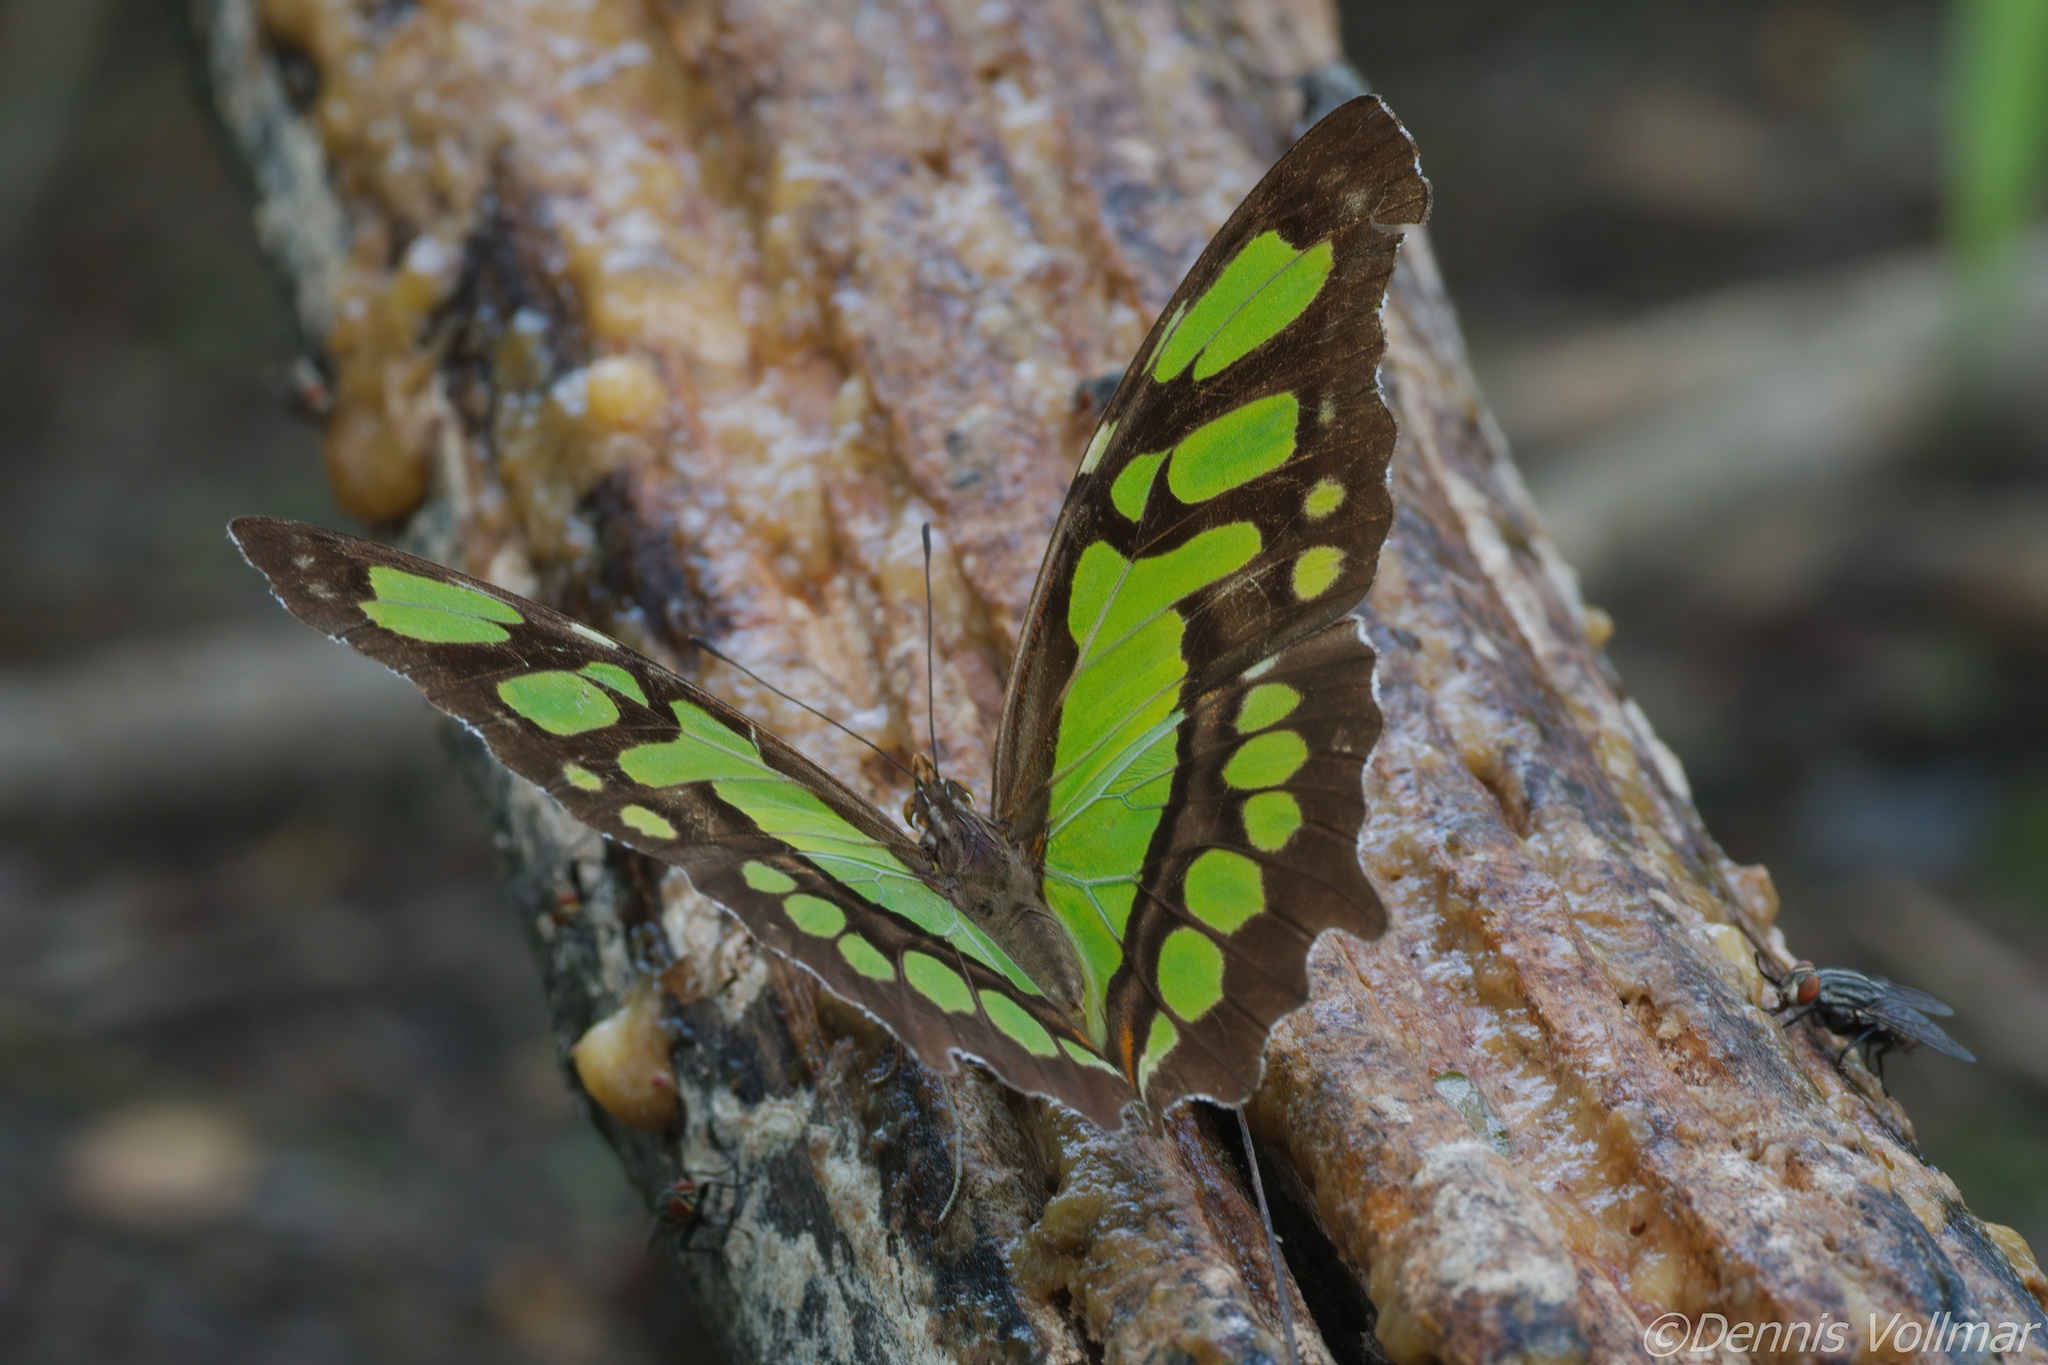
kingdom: Animalia
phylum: Arthropoda
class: Insecta
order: Lepidoptera
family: Nymphalidae
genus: Siproeta
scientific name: Siproeta stelenes
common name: Malachite
